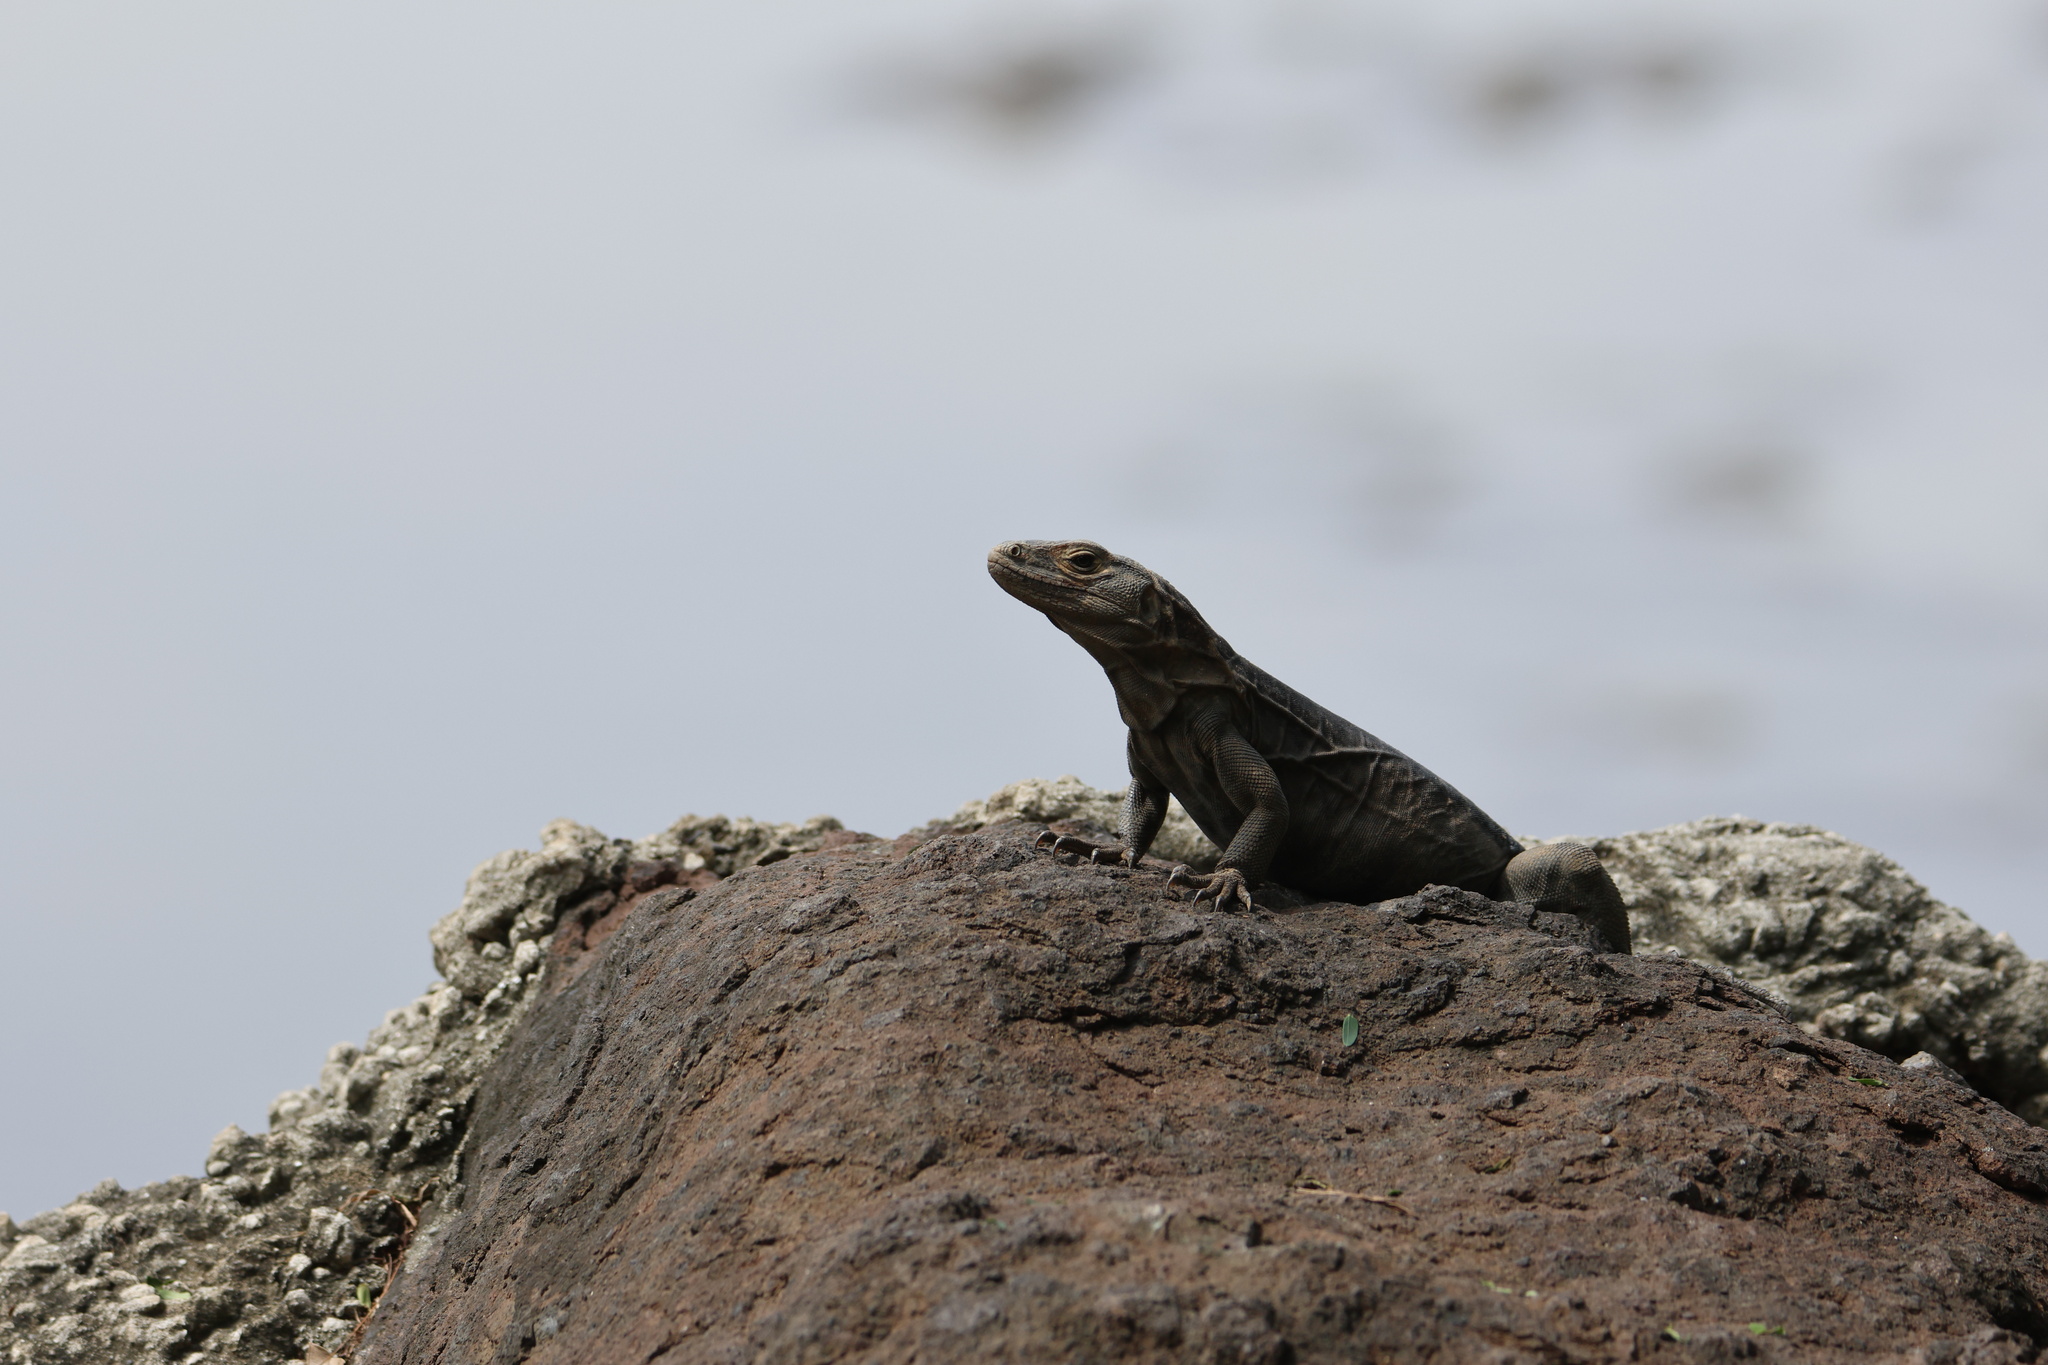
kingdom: Animalia
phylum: Chordata
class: Squamata
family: Iguanidae
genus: Ctenosaura
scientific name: Ctenosaura similis
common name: Black spiny-tailed iguana
